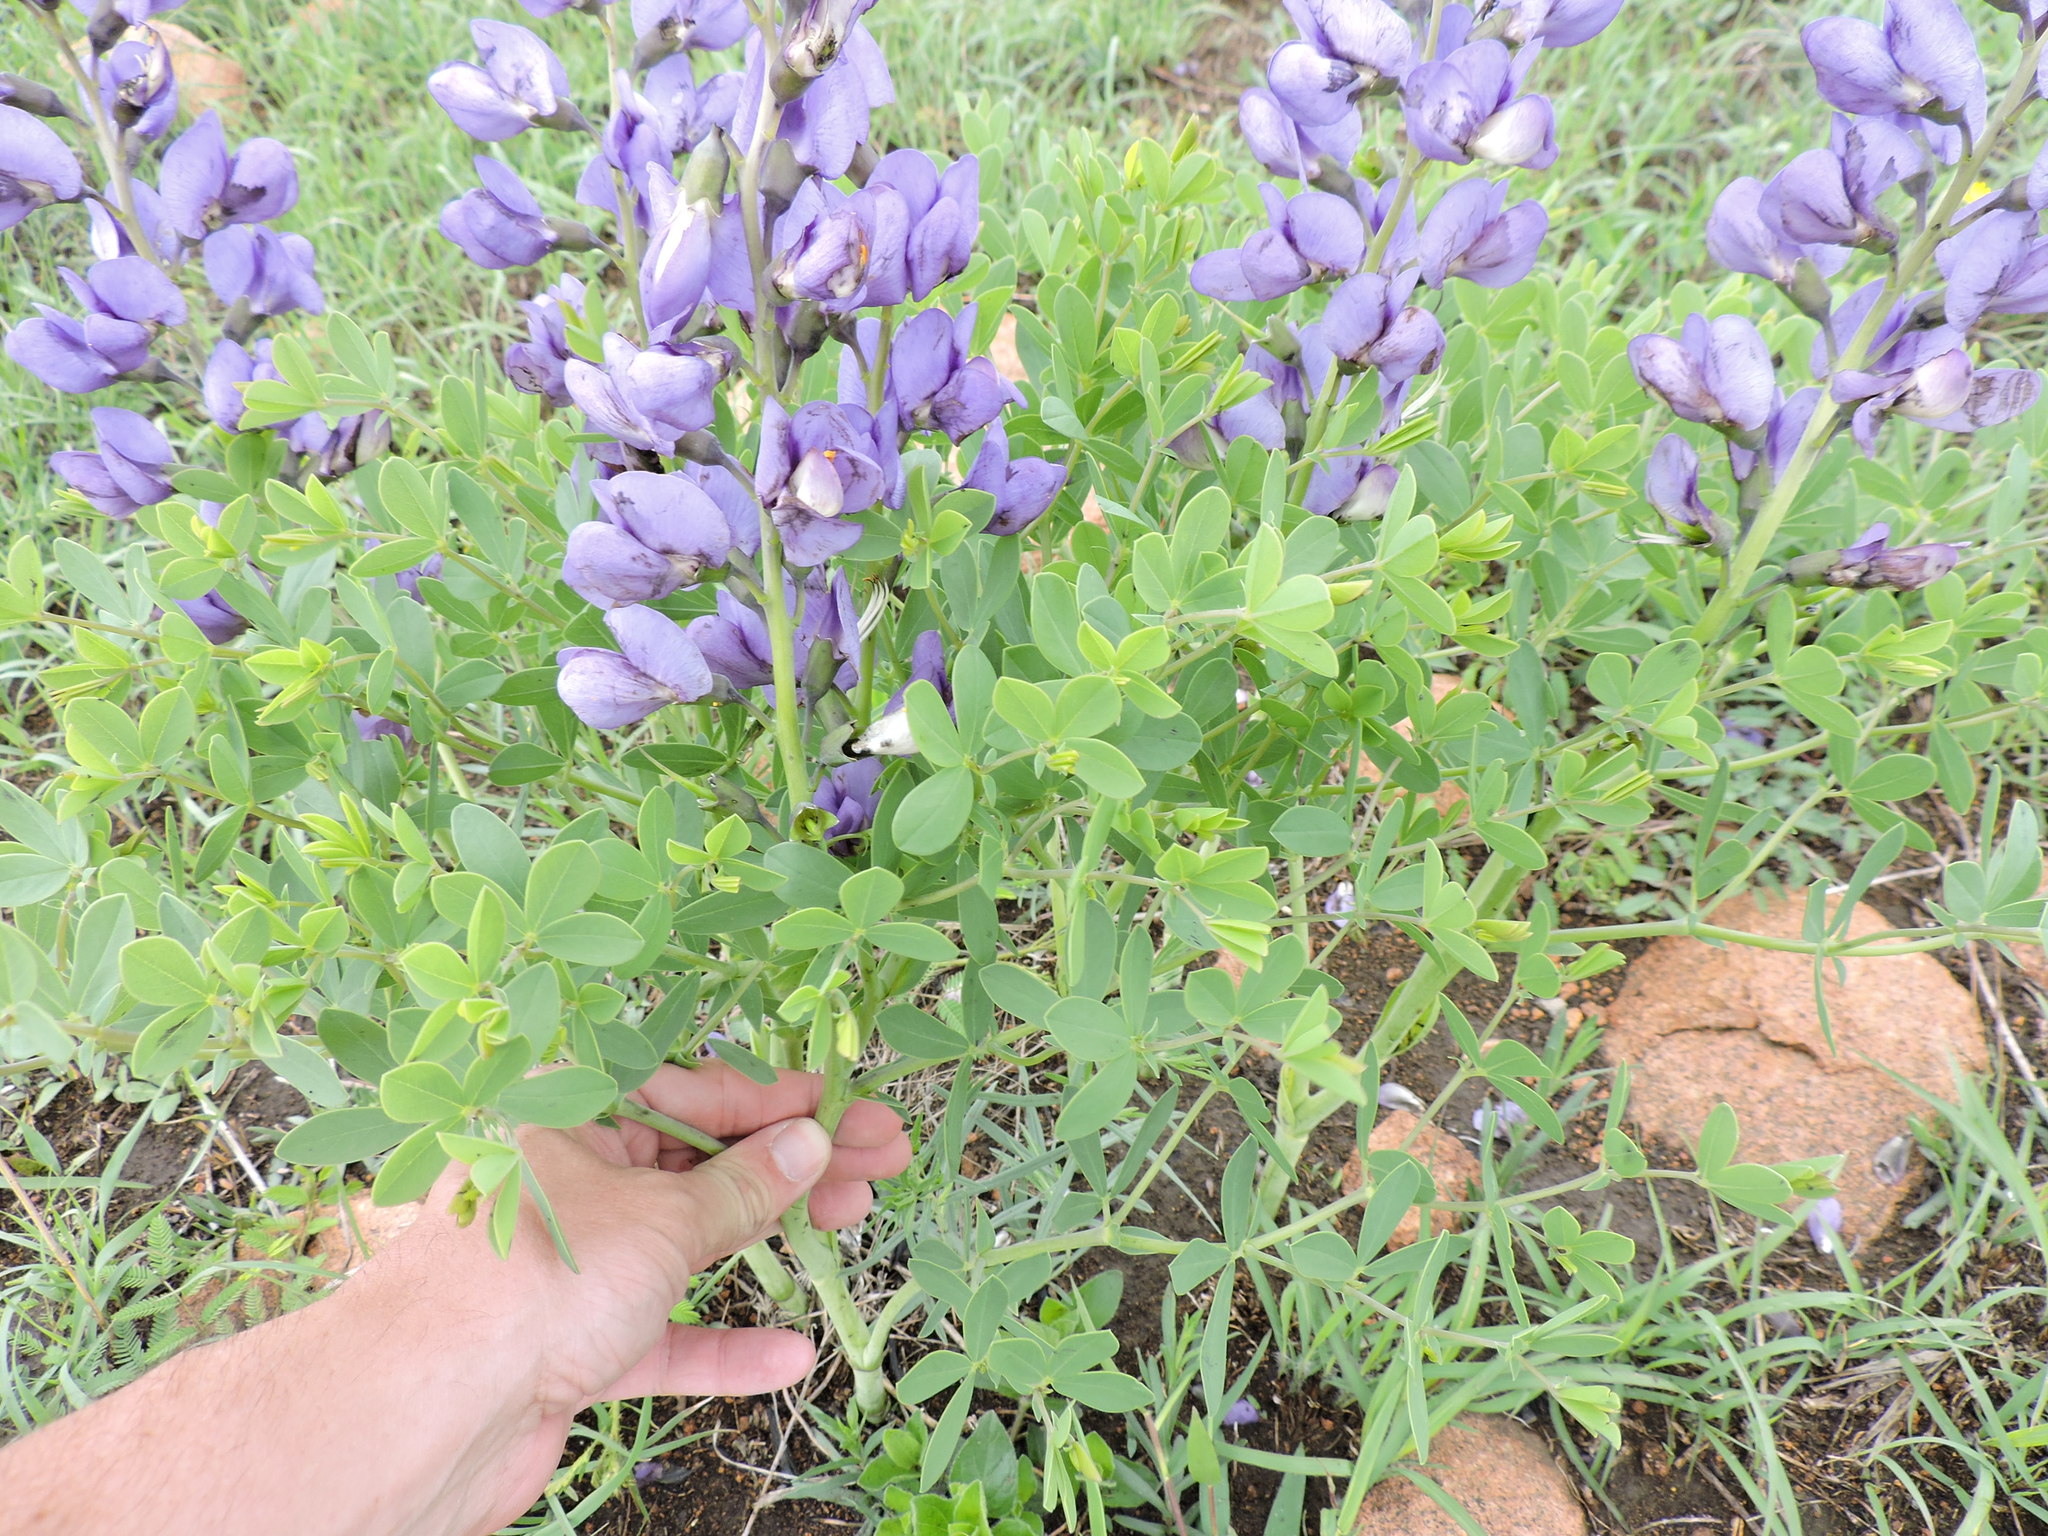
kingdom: Plantae
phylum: Tracheophyta
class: Magnoliopsida
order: Fabales
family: Fabaceae
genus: Baptisia
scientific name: Baptisia australis
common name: Blue false indigo
